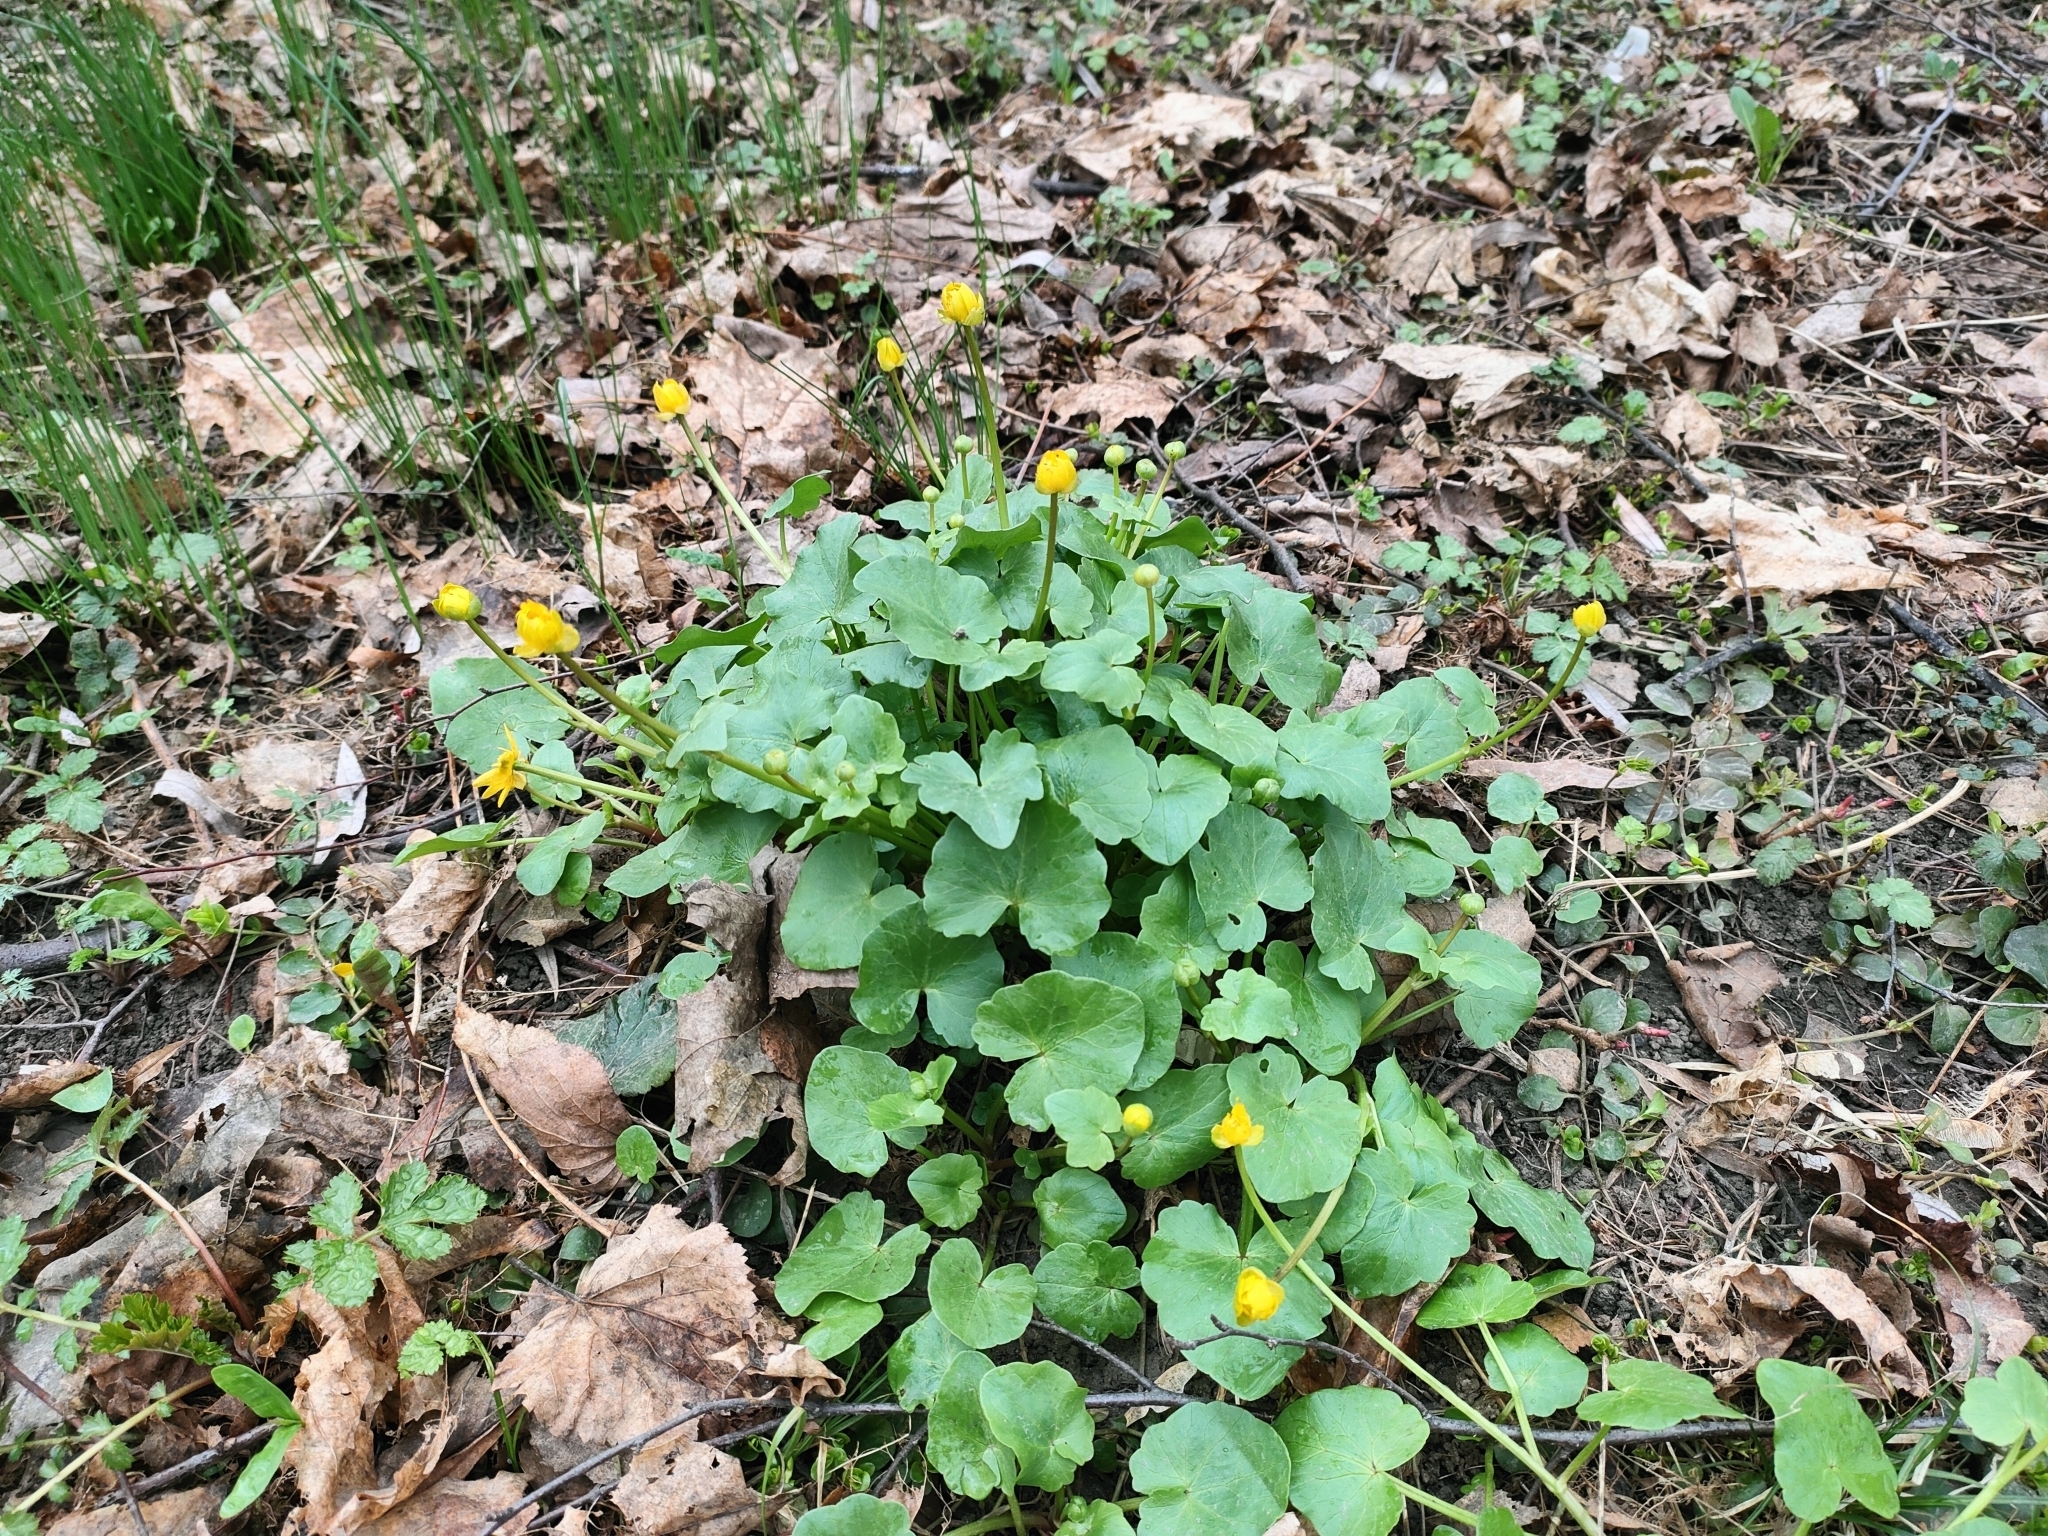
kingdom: Plantae
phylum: Tracheophyta
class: Magnoliopsida
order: Ranunculales
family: Ranunculaceae
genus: Ficaria
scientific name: Ficaria verna
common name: Lesser celandine
